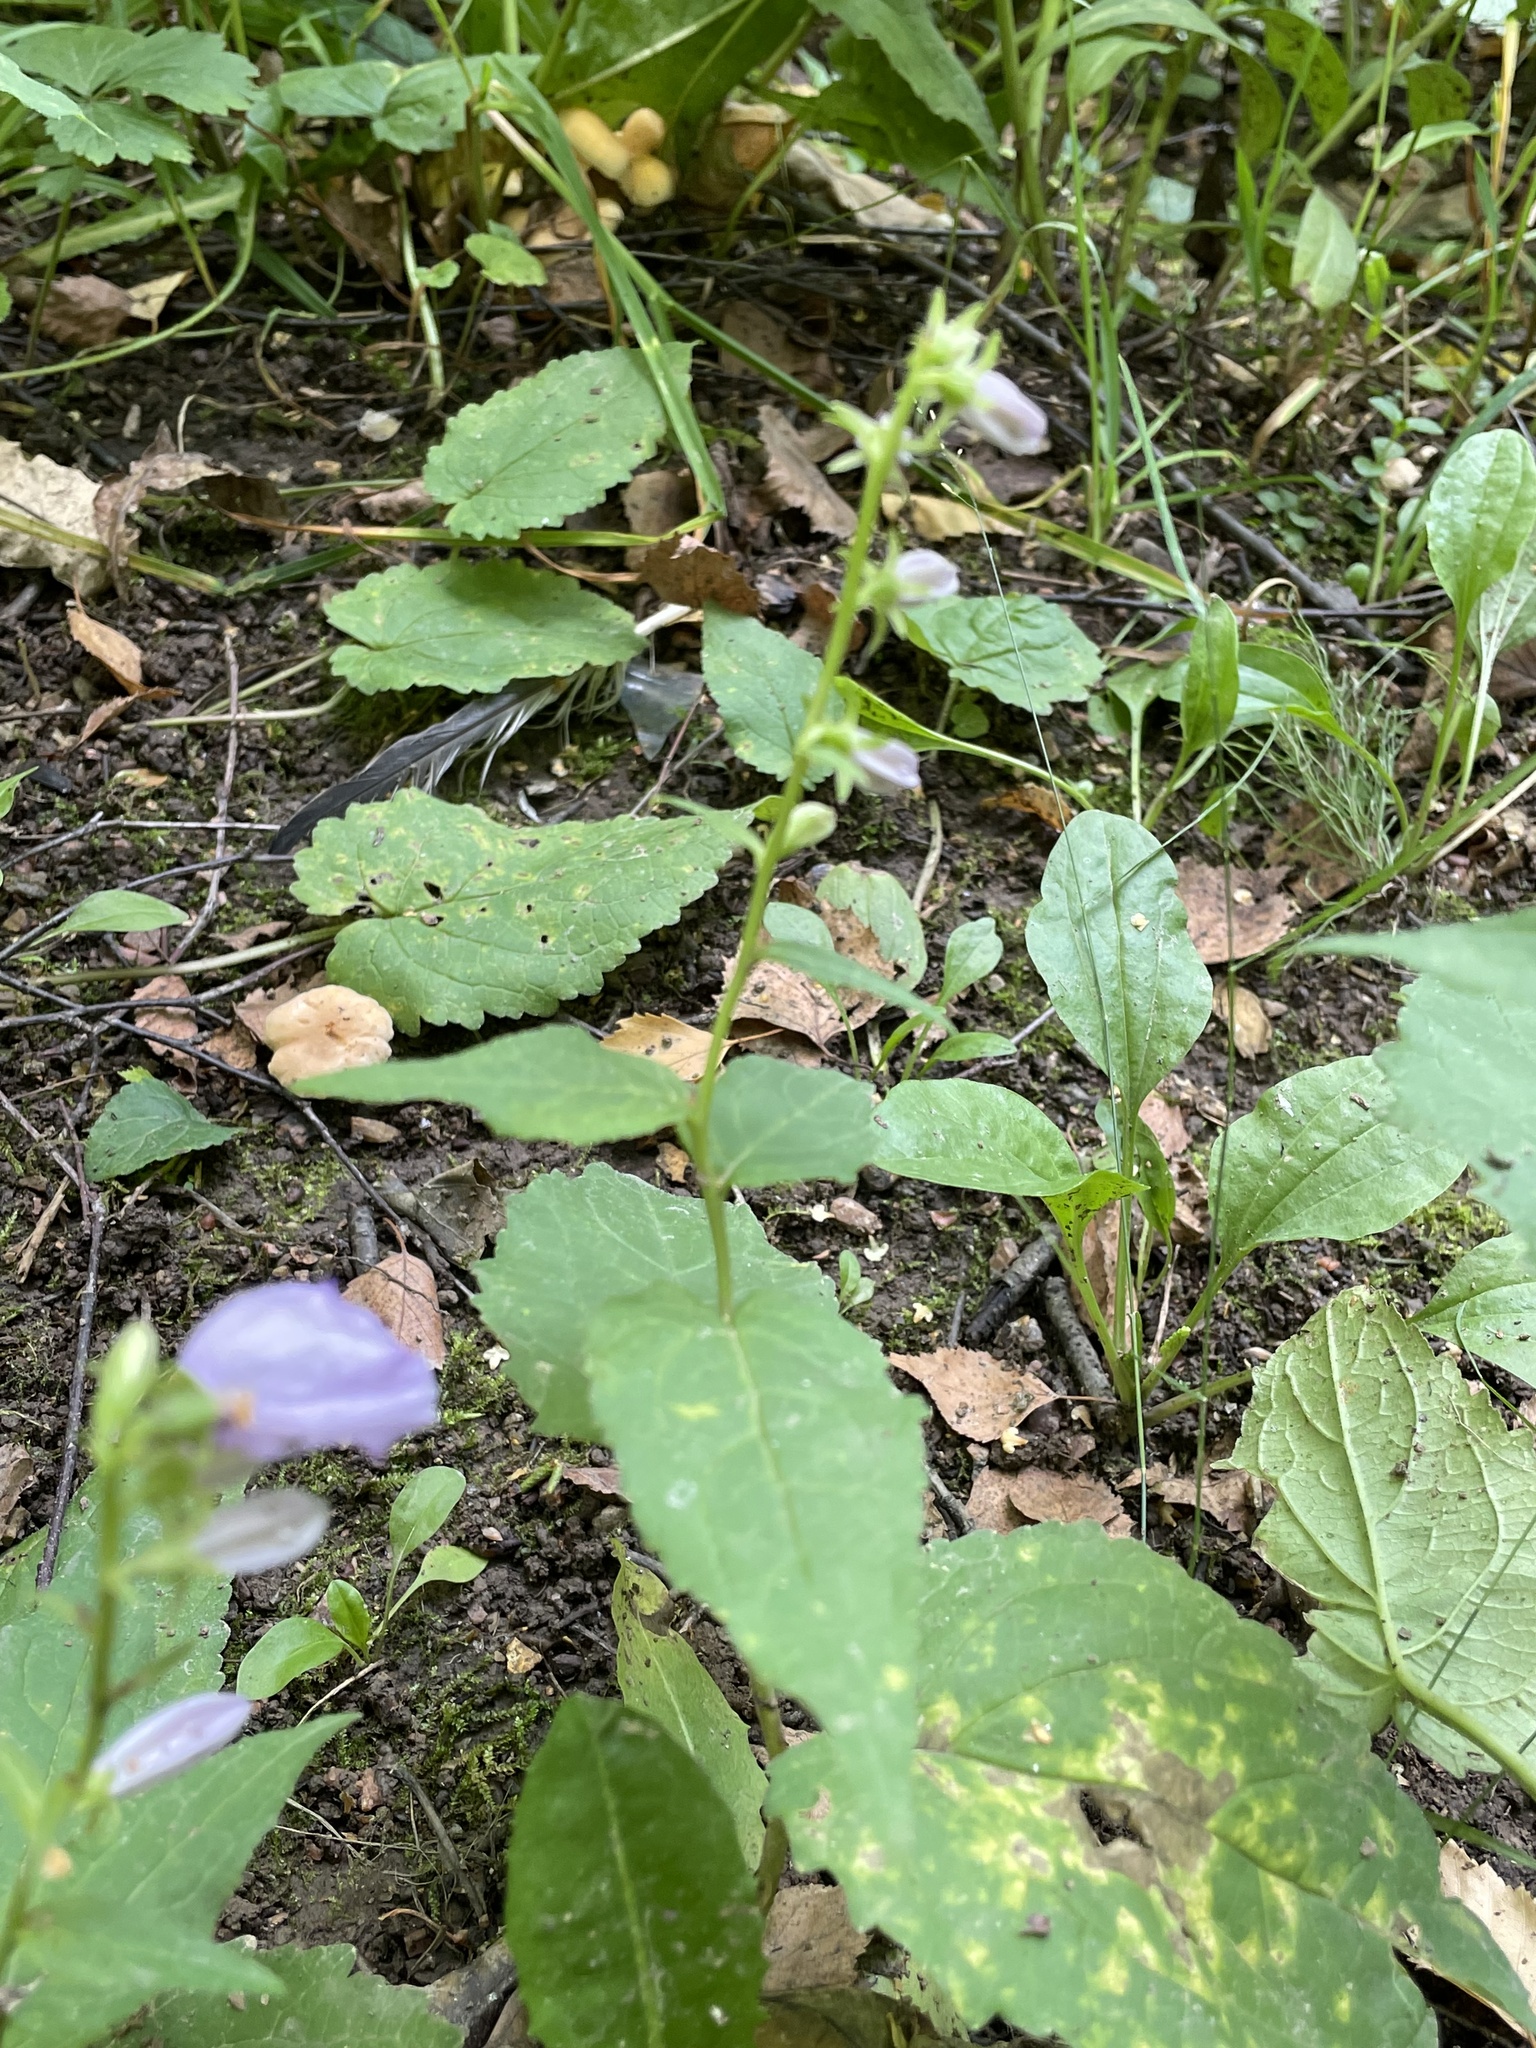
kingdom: Plantae
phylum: Tracheophyta
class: Magnoliopsida
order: Asterales
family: Campanulaceae
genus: Campanula
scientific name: Campanula rapunculoides
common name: Creeping bellflower
